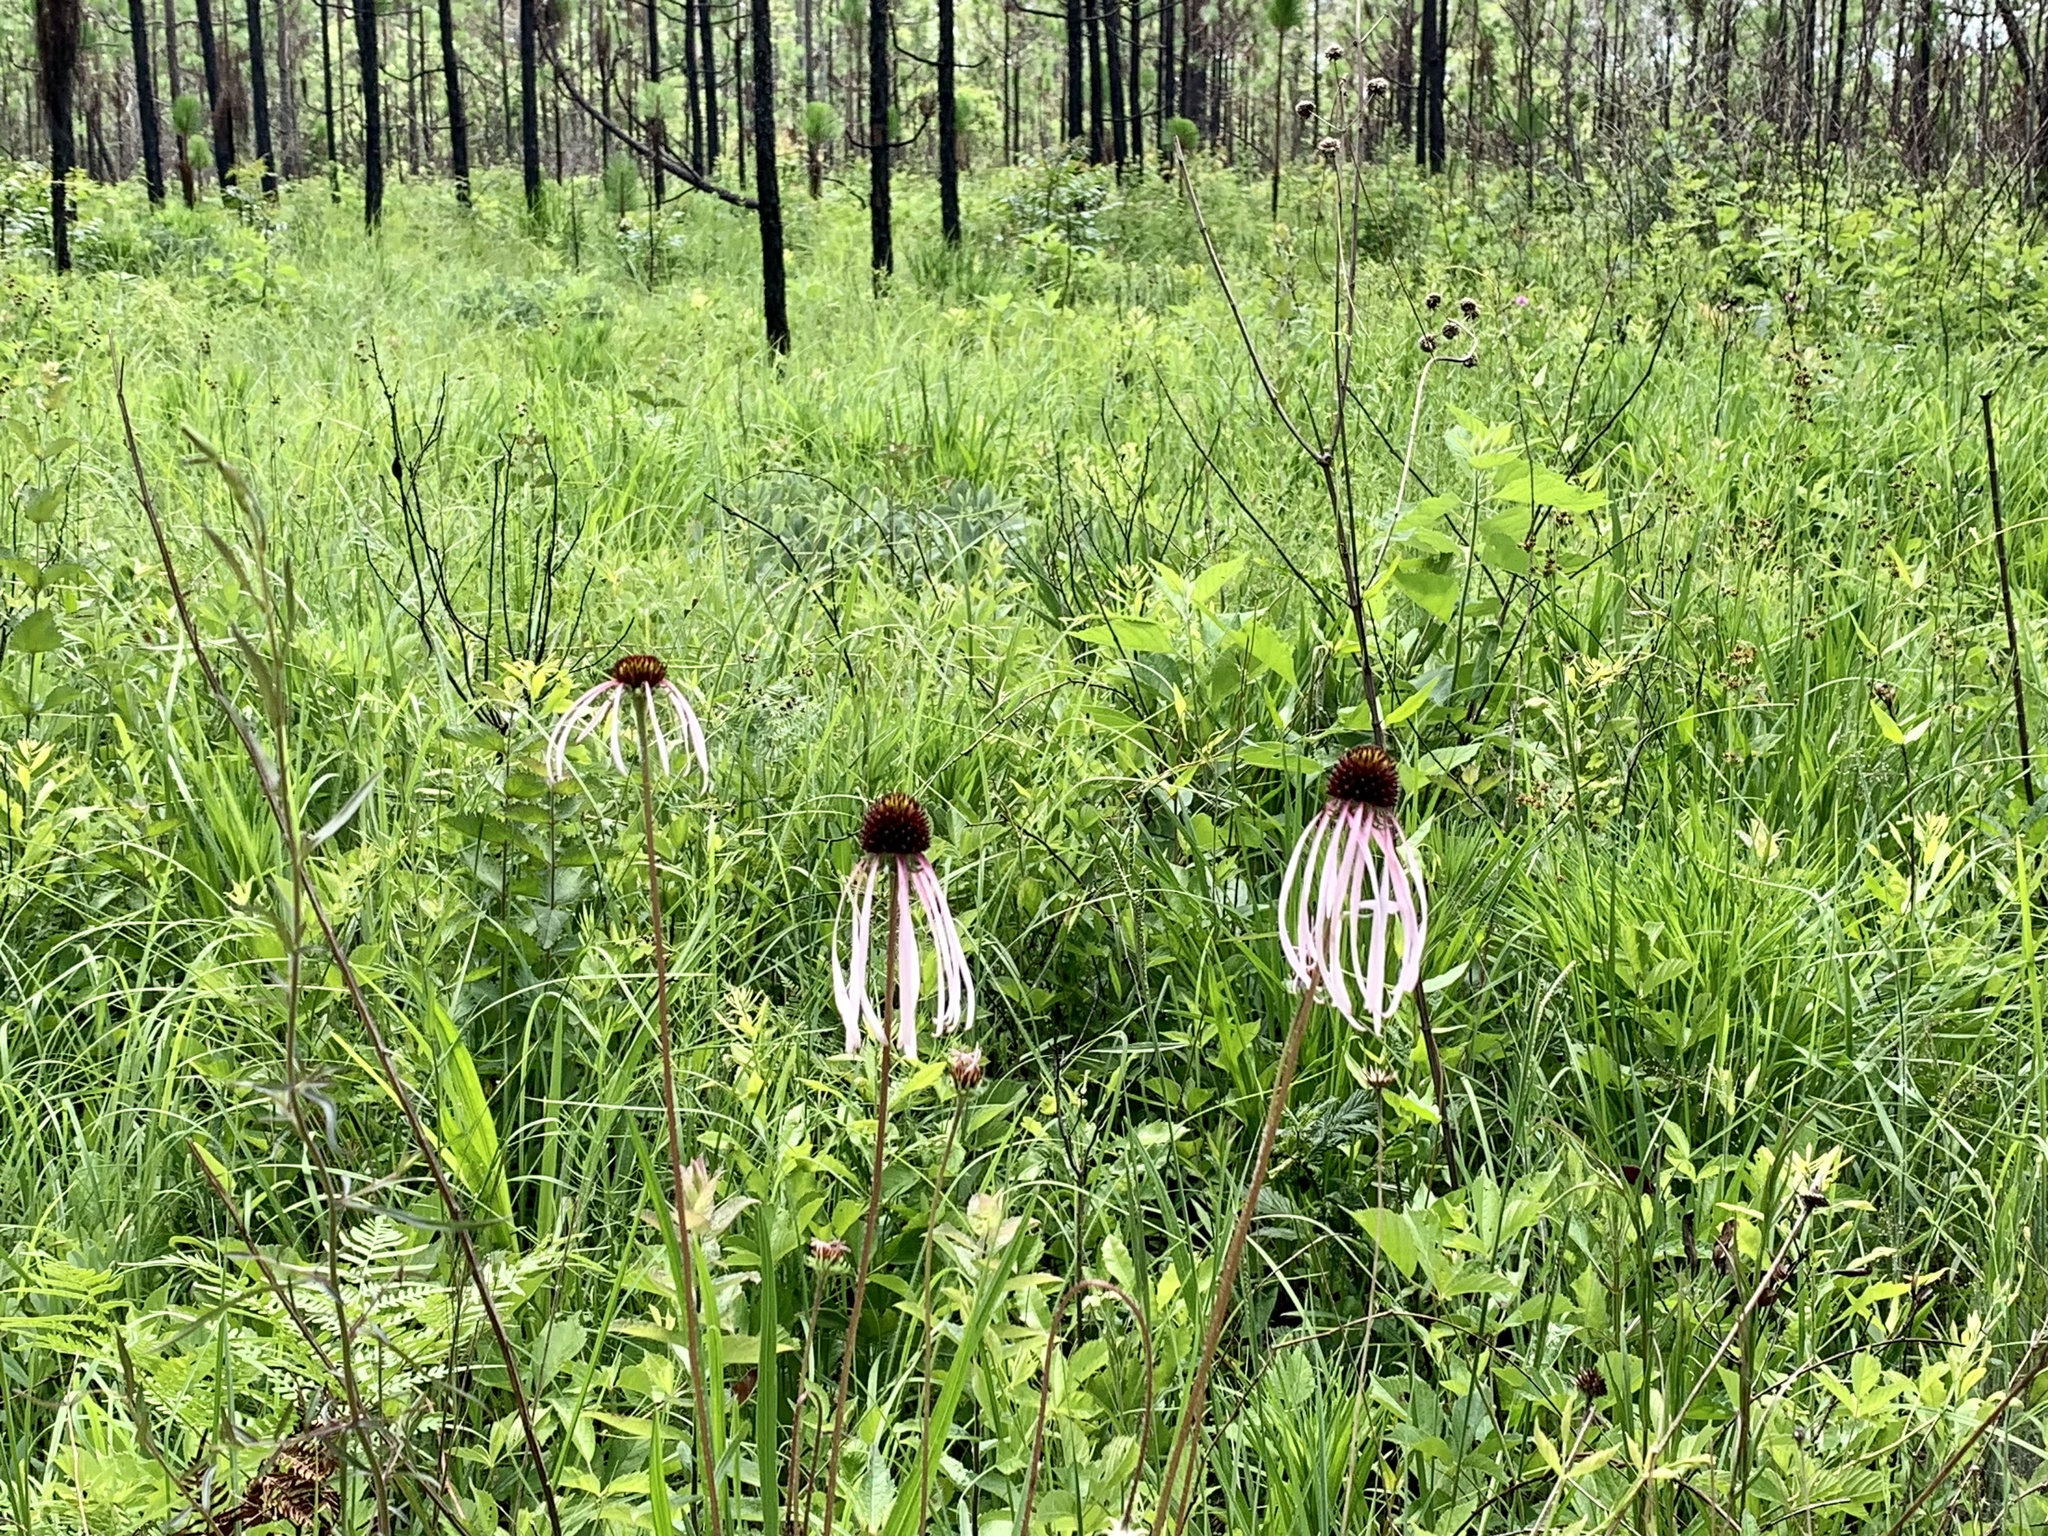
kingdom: Plantae
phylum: Tracheophyta
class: Magnoliopsida
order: Asterales
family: Asteraceae
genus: Echinacea
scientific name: Echinacea sanguinea
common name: Sanguine purple-coneflower
